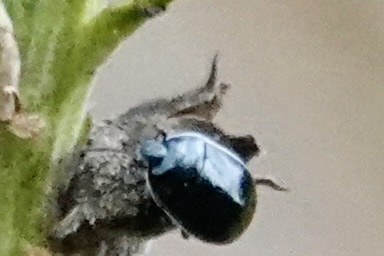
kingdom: Animalia
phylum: Arthropoda
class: Insecta
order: Hemiptera
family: Cydnidae
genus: Sehirus
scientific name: Sehirus cinctus
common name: White-margined burrower bug
